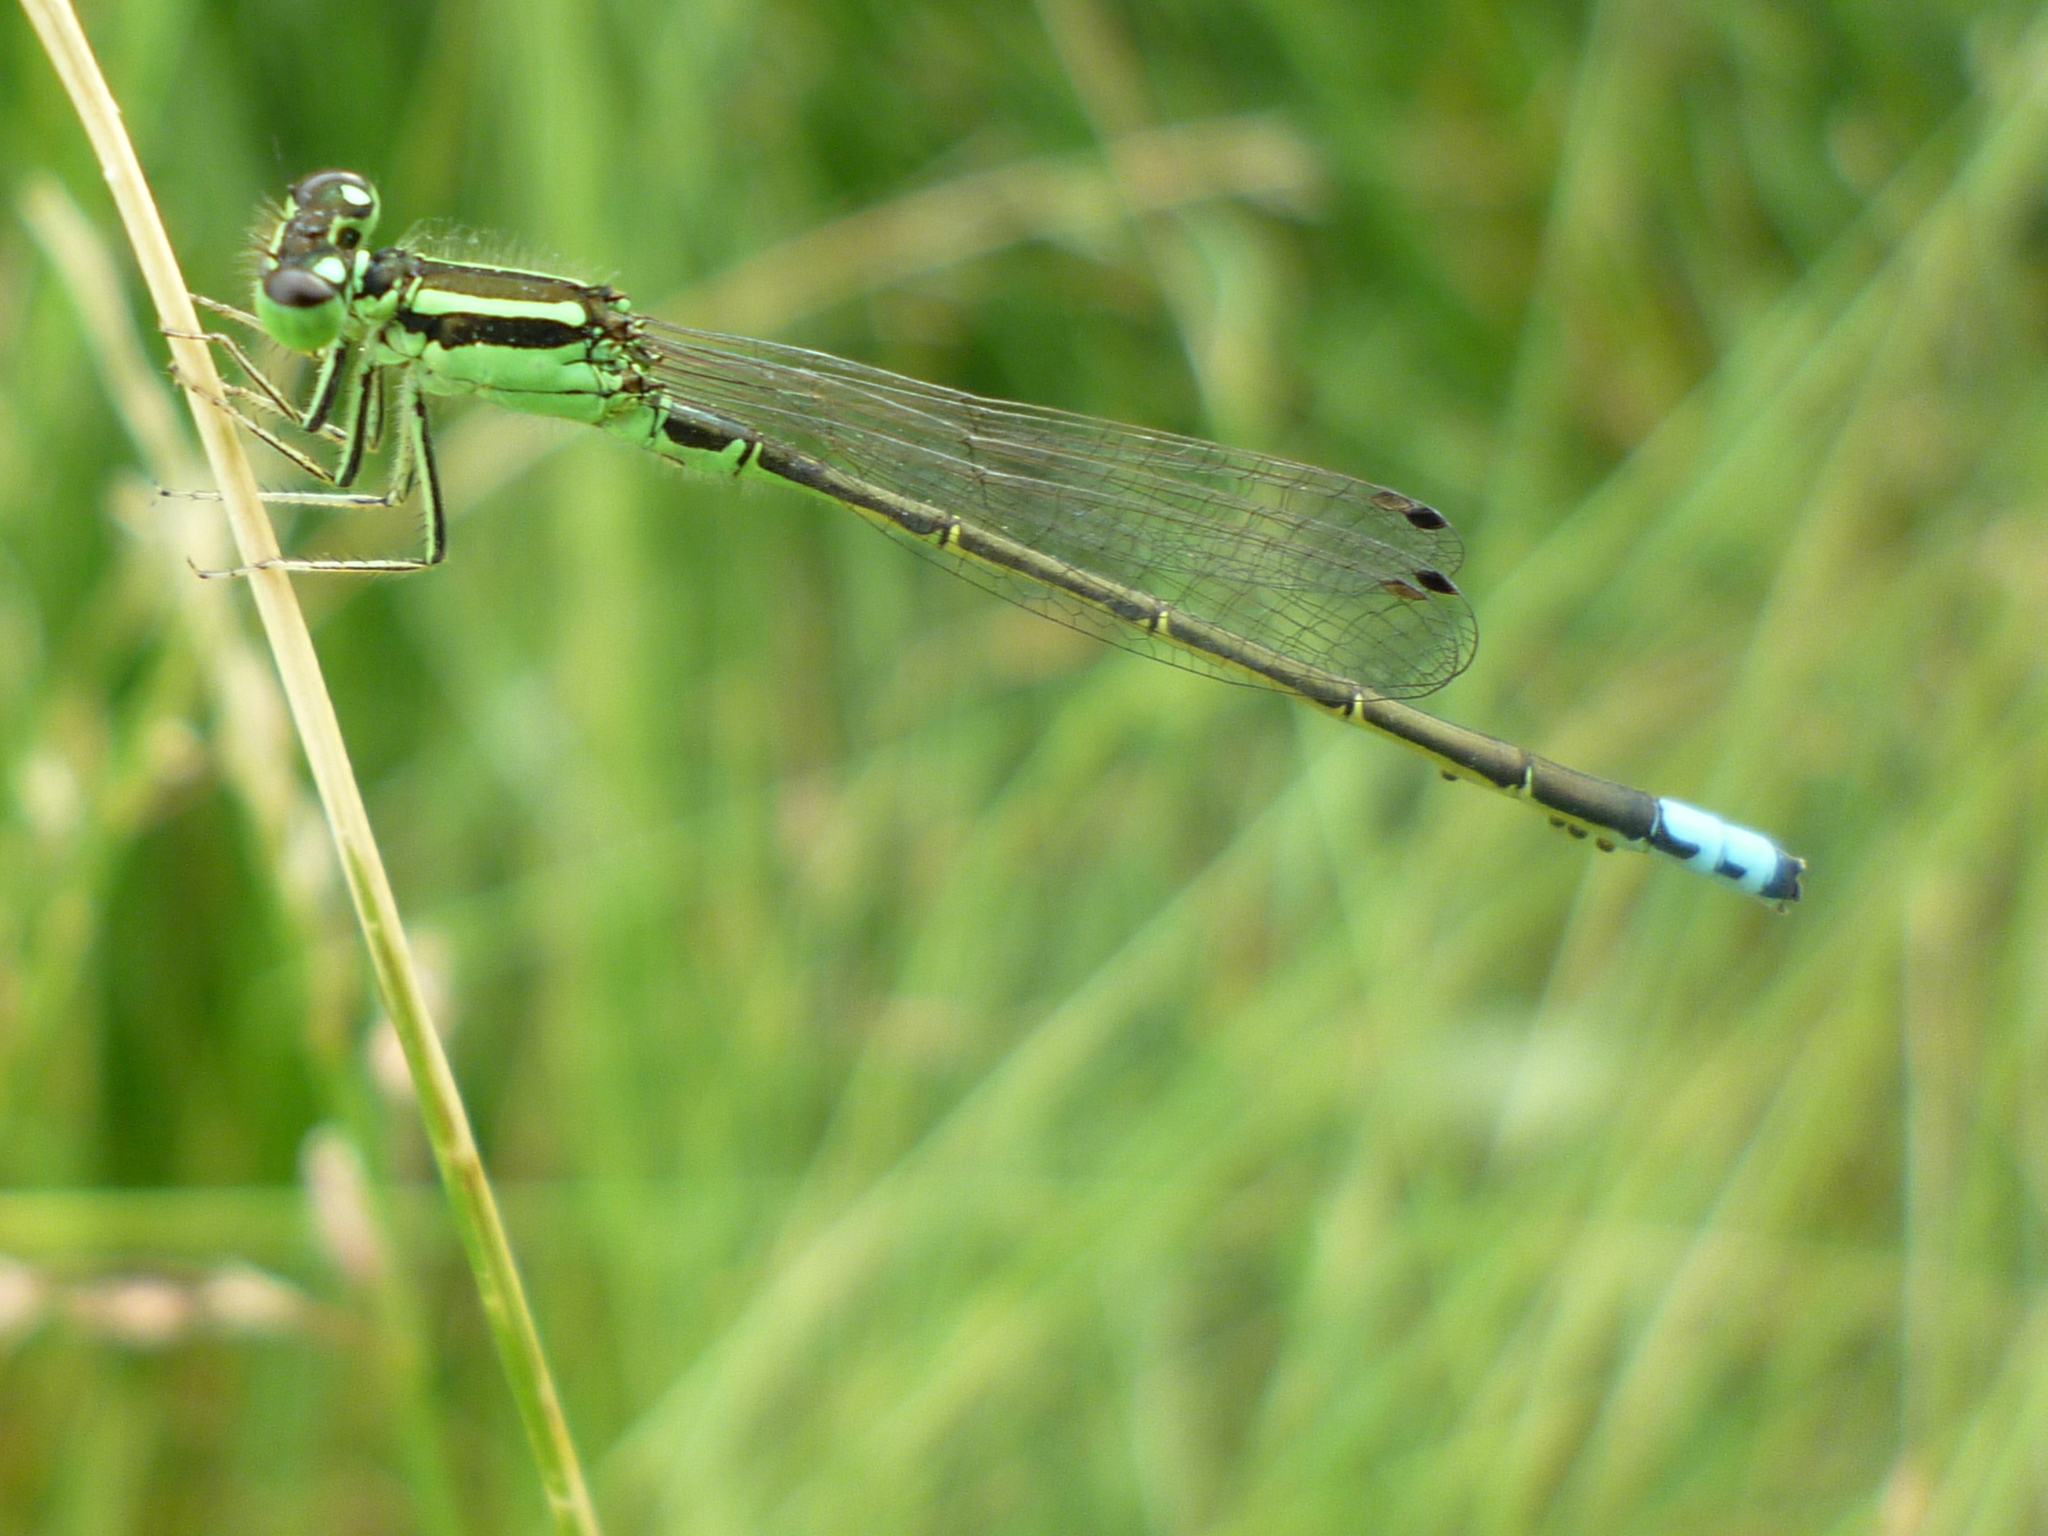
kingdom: Animalia
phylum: Arthropoda
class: Insecta
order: Odonata
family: Coenagrionidae
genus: Ischnura
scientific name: Ischnura verticalis
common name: Eastern forktail
